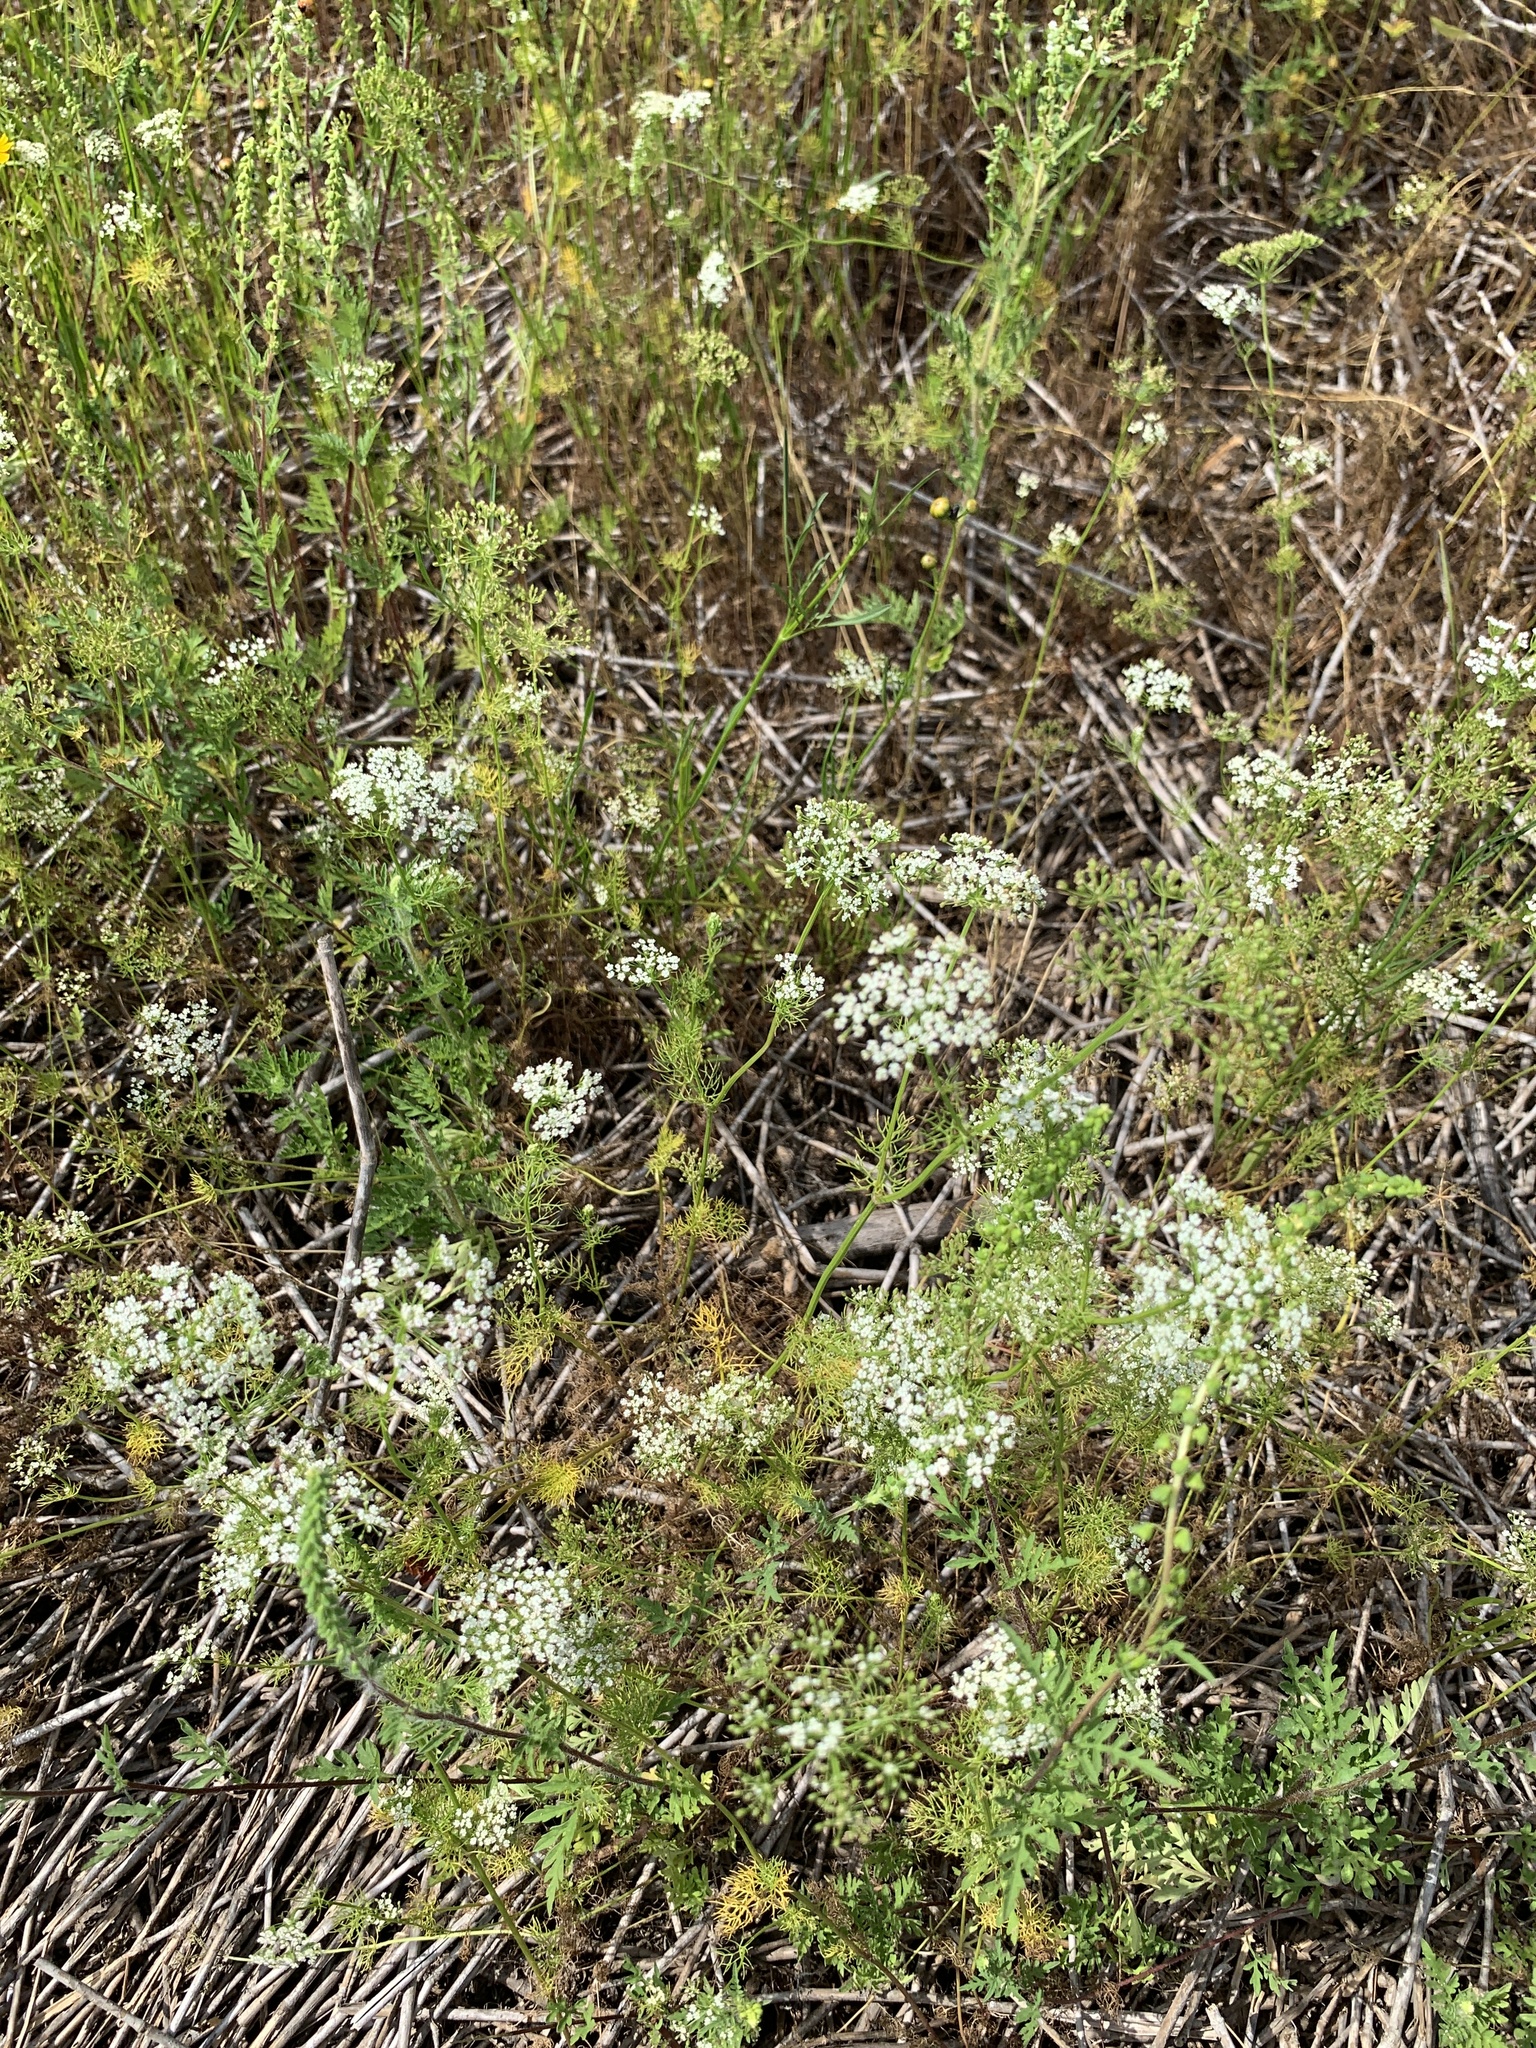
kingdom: Plantae
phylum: Tracheophyta
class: Magnoliopsida
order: Apiales
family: Apiaceae
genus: Ptilimnium
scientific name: Ptilimnium capillaceum
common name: Herbwilliam
